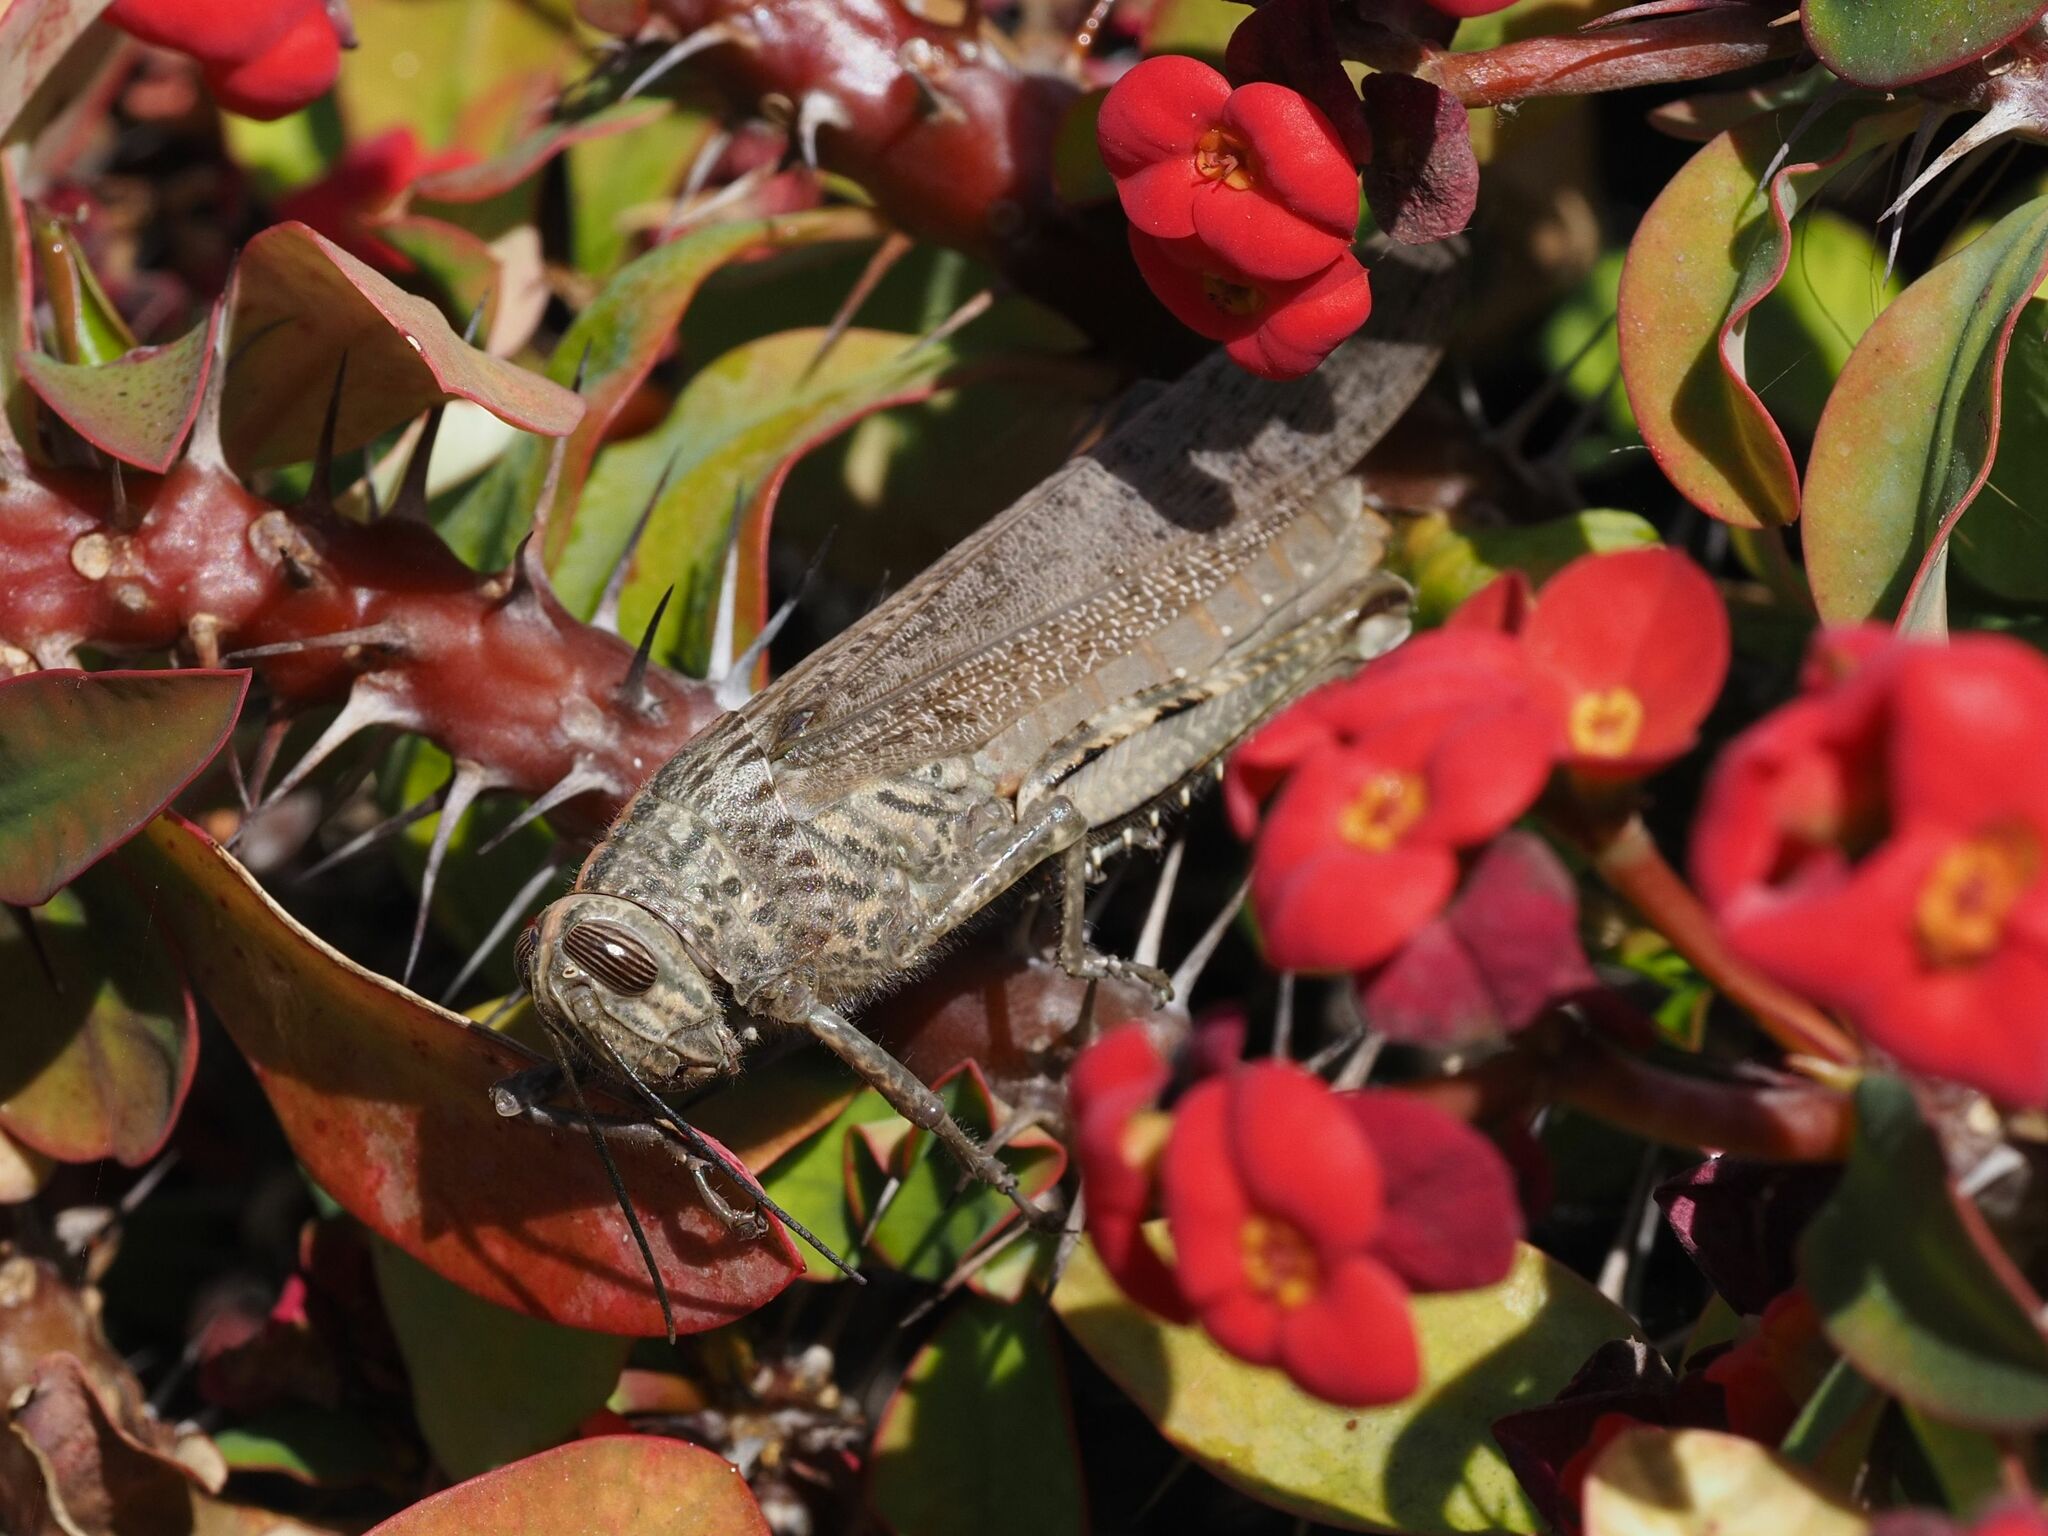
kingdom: Animalia
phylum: Arthropoda
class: Insecta
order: Orthoptera
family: Acrididae
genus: Anacridium
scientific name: Anacridium aegyptium
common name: Egyptian grasshopper
